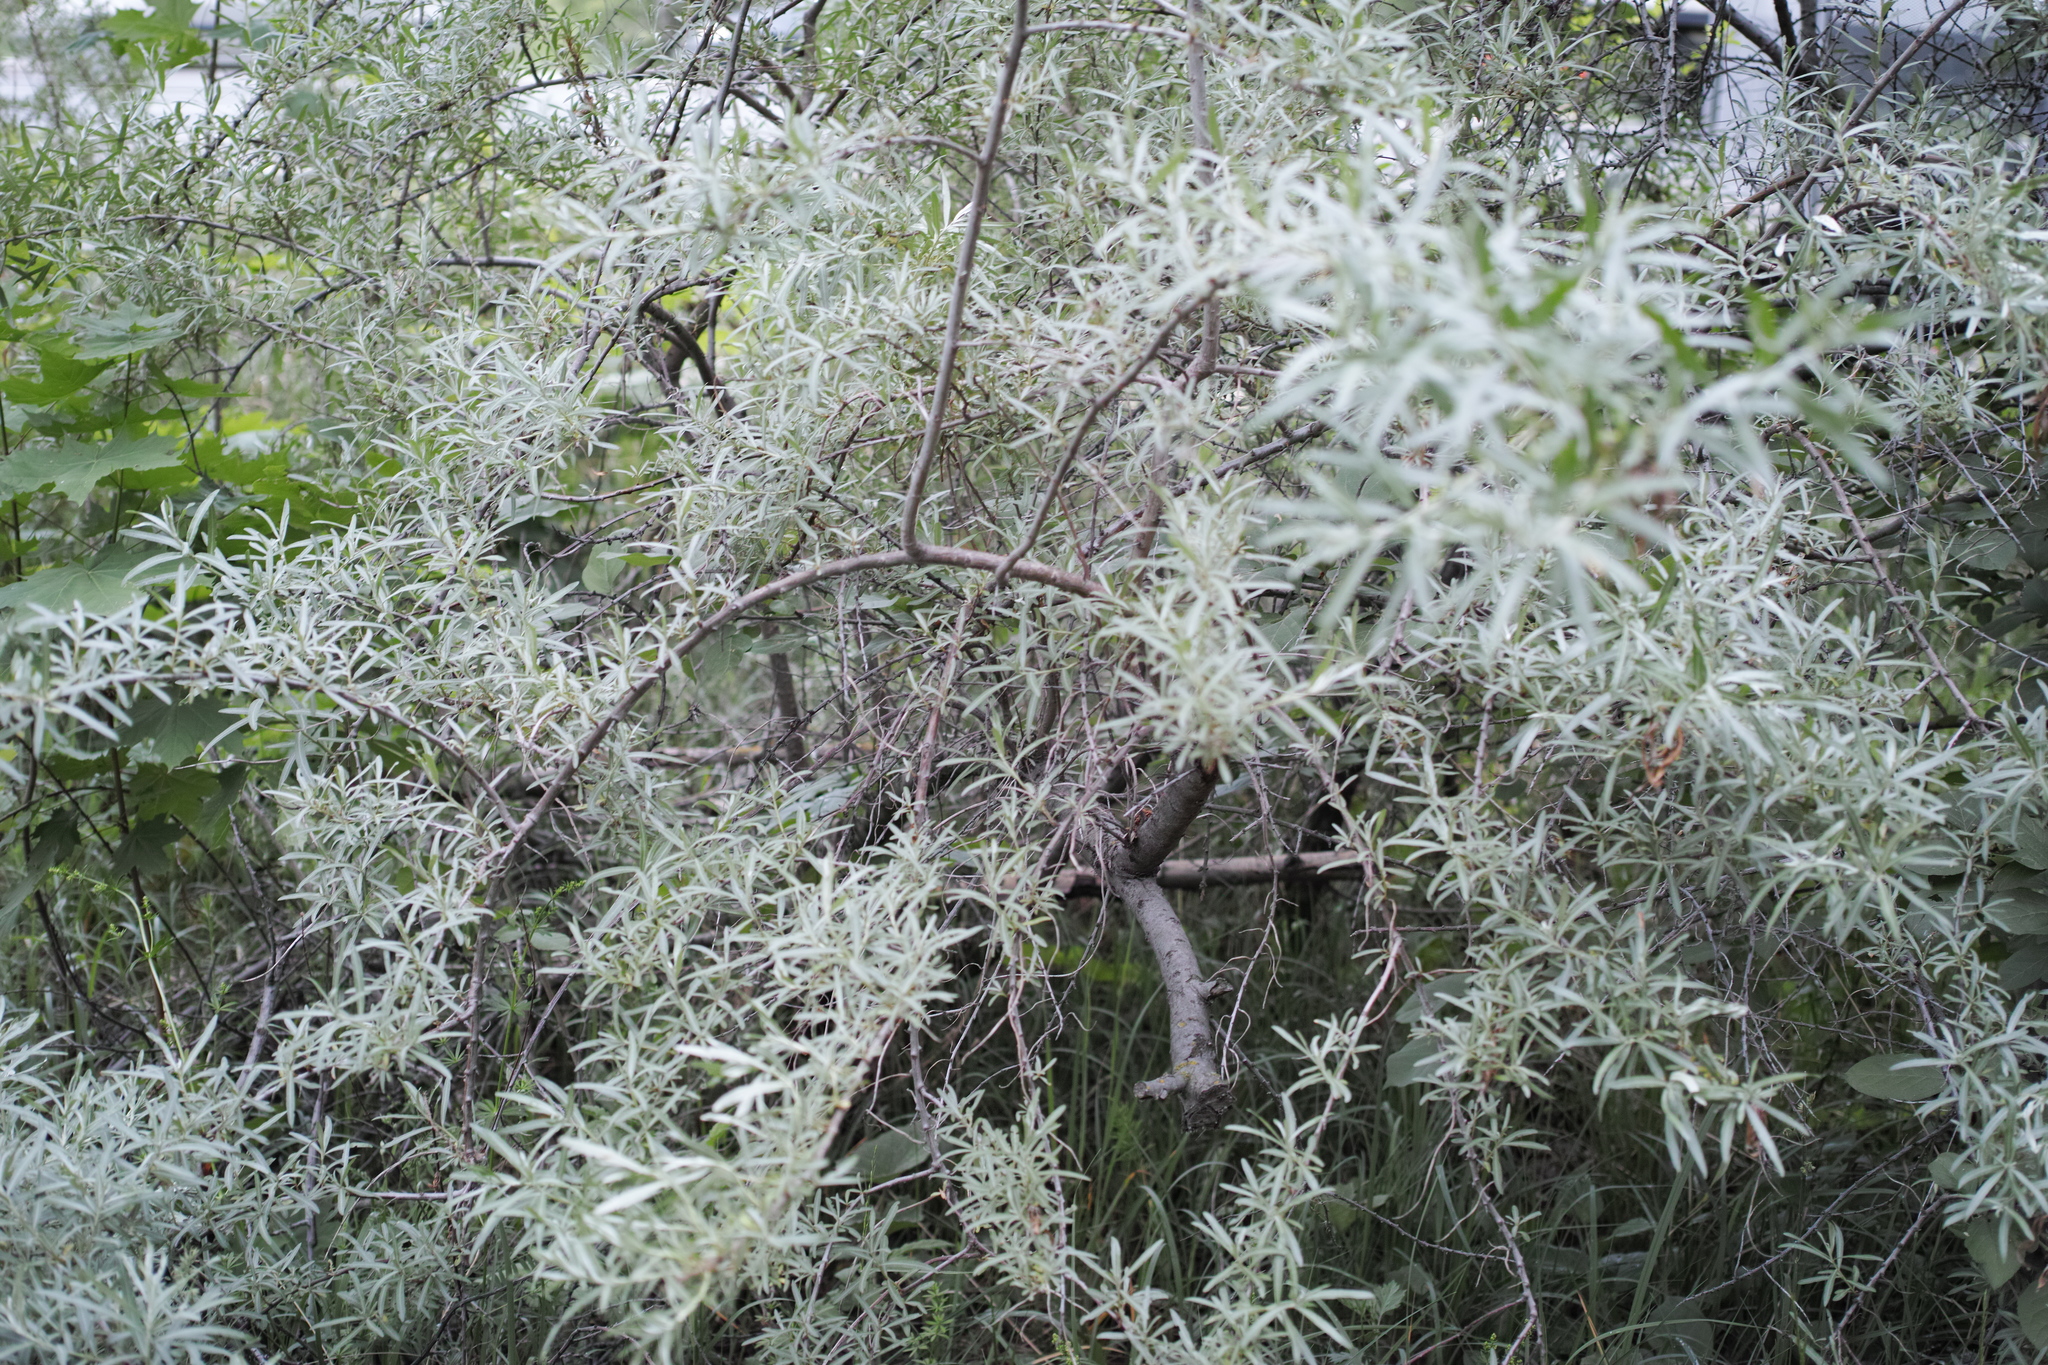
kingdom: Plantae
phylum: Tracheophyta
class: Magnoliopsida
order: Rosales
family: Elaeagnaceae
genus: Hippophae
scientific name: Hippophae rhamnoides
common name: Sea-buckthorn
